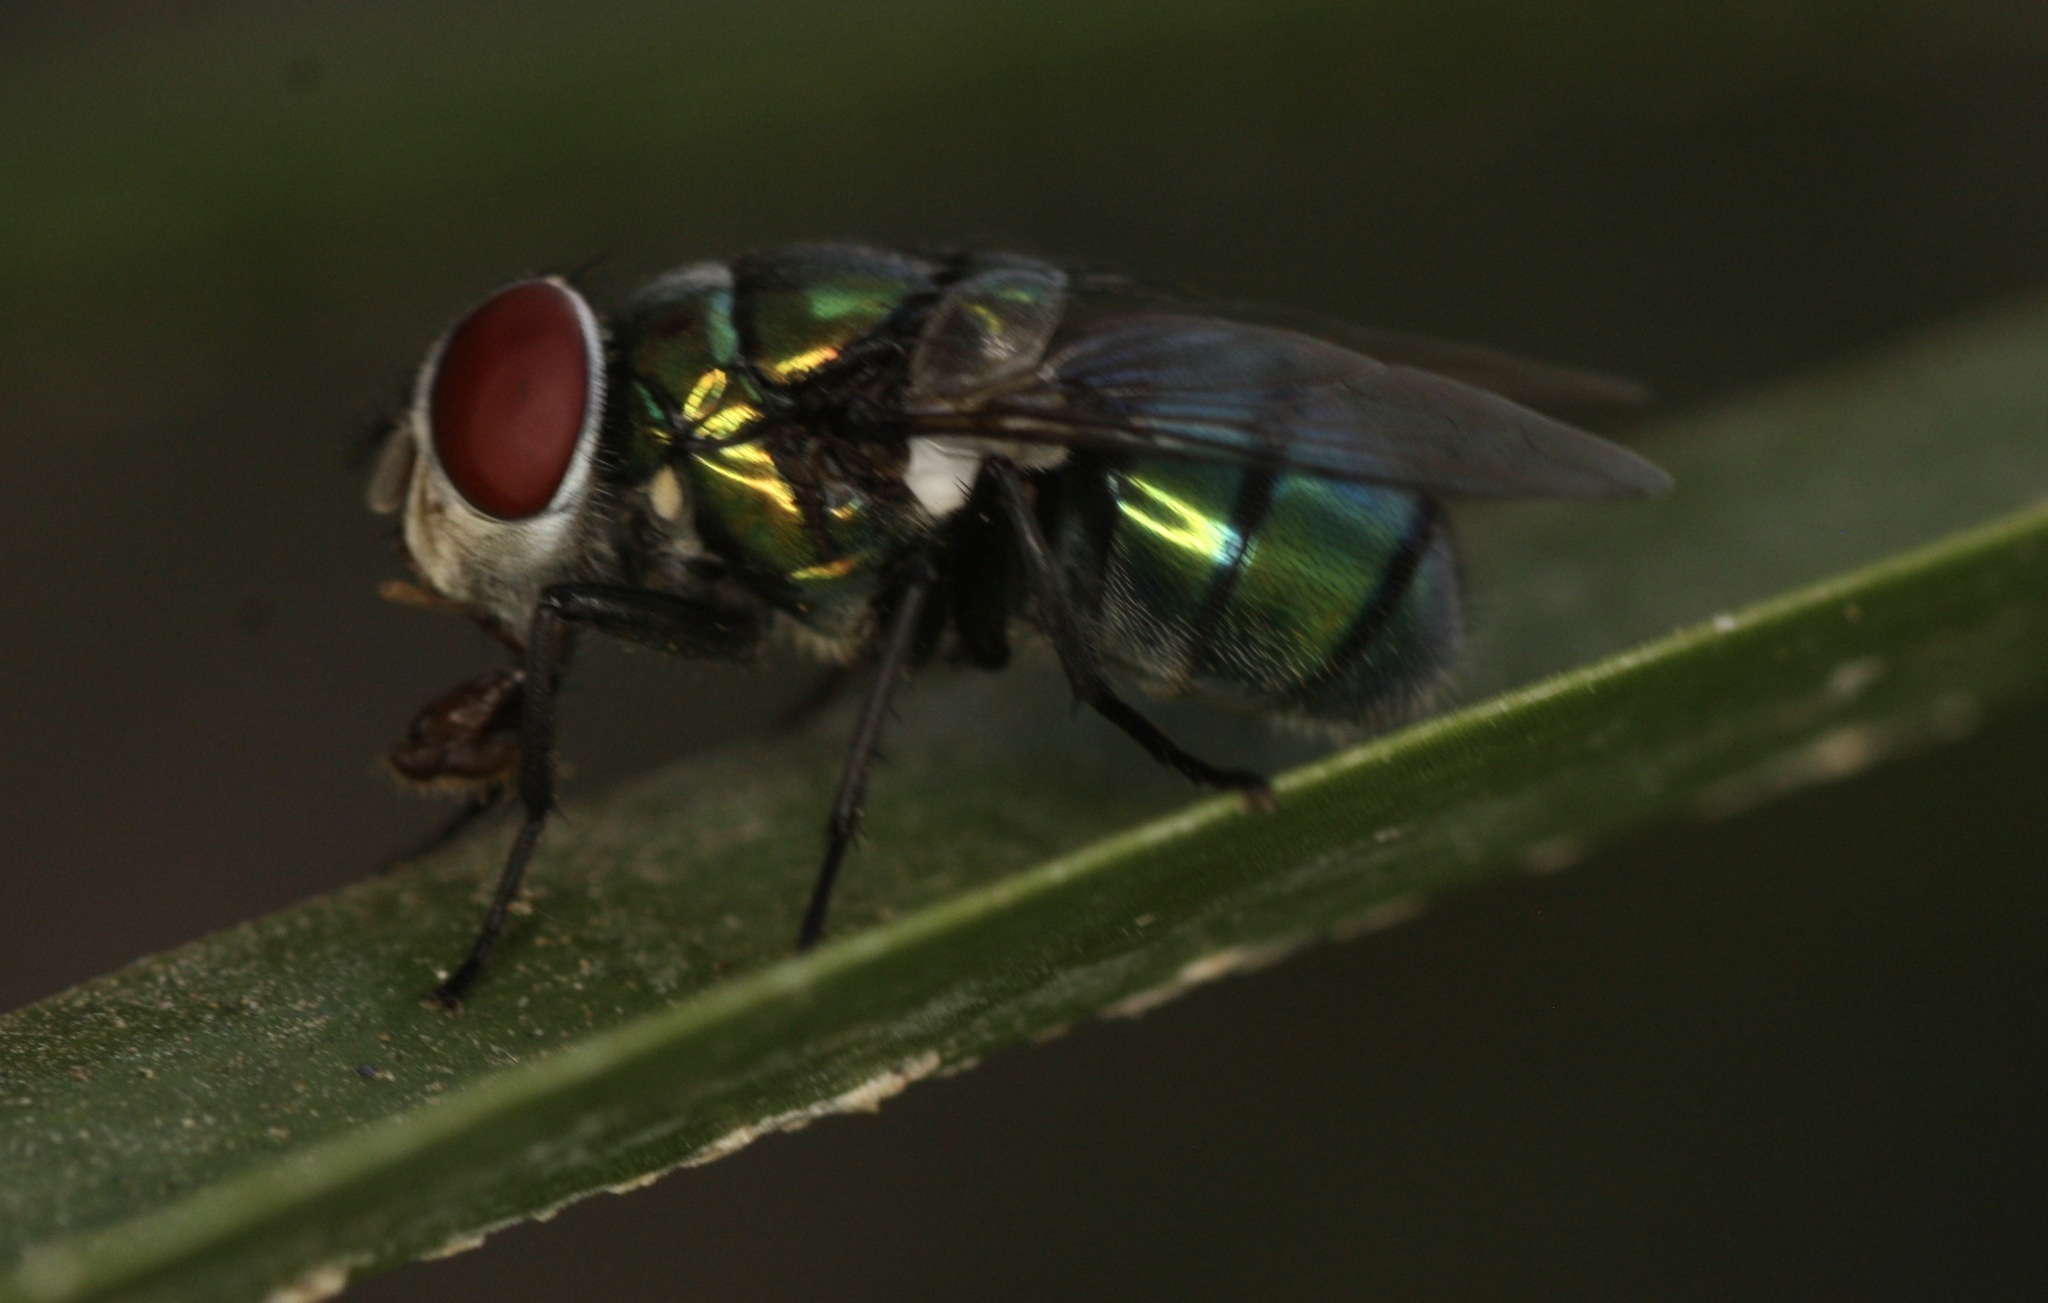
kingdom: Animalia
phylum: Arthropoda
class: Insecta
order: Diptera
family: Calliphoridae
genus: Chrysomya
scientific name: Chrysomya rufifacies
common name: Blow fly
